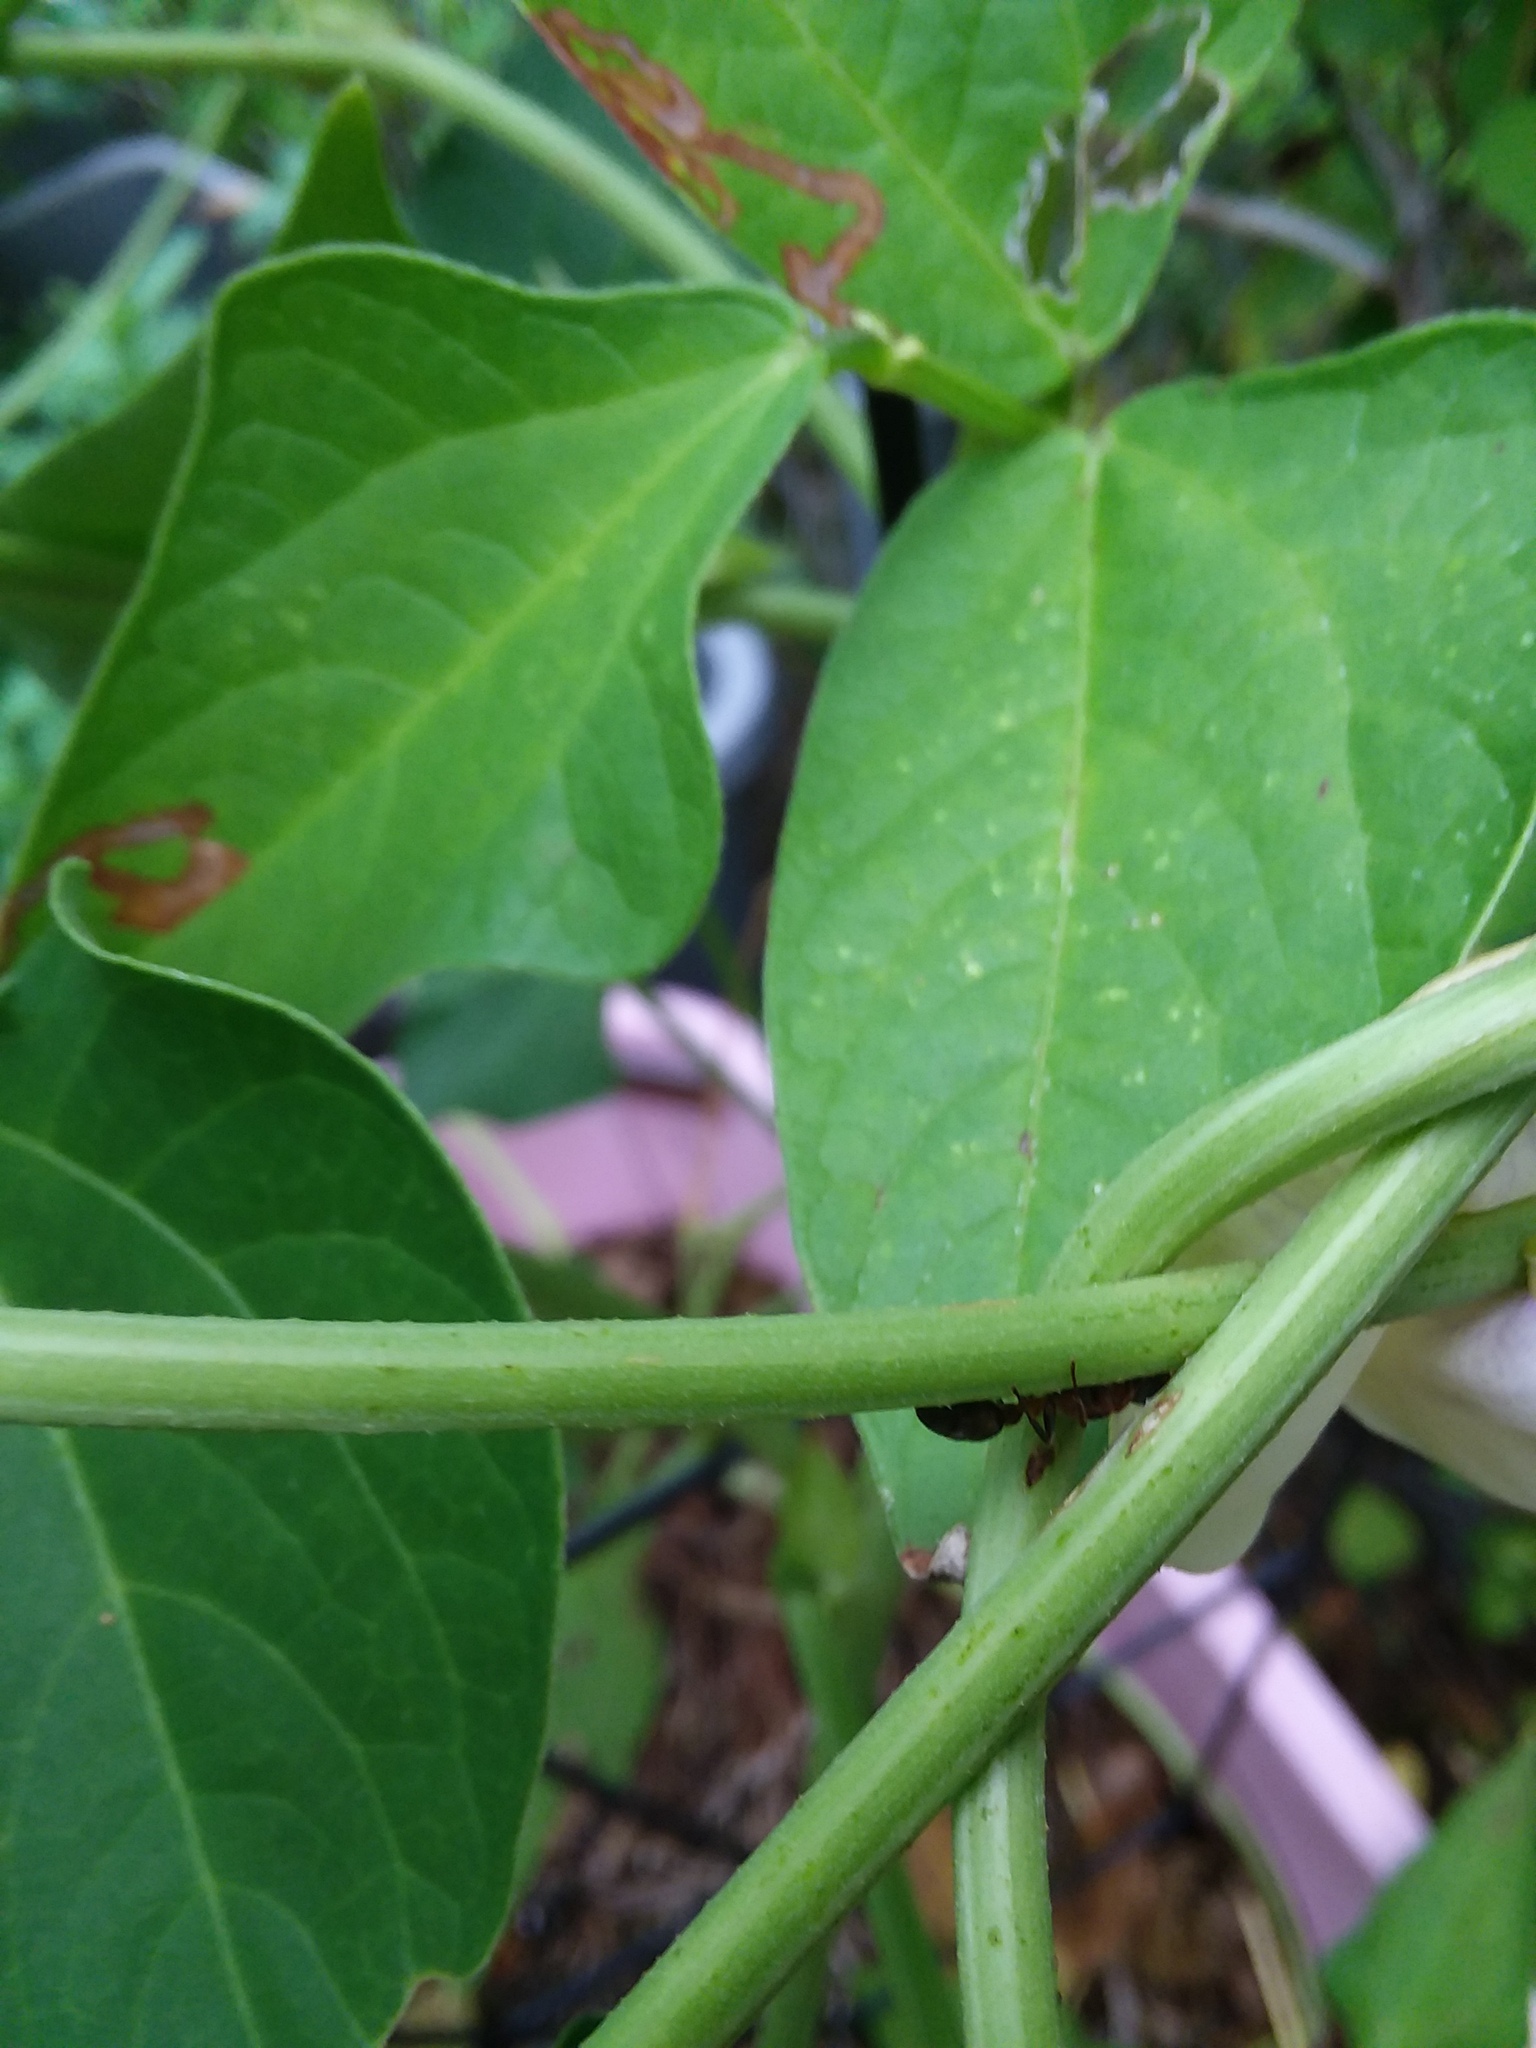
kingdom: Animalia
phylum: Arthropoda
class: Insecta
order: Hymenoptera
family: Formicidae
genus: Pseudomyrmex
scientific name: Pseudomyrmex gracilis
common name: Graceful twig ant
